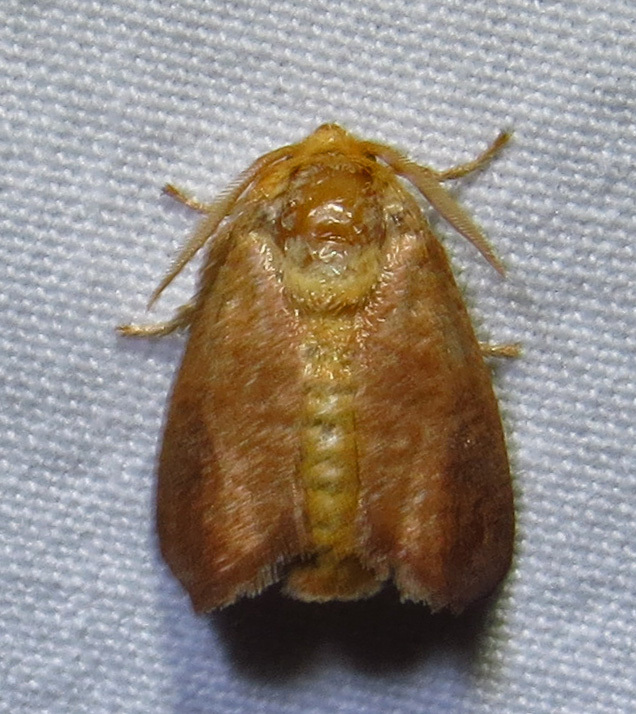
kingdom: Animalia
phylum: Arthropoda
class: Insecta
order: Lepidoptera
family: Limacodidae
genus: Isa
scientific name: Isa textula
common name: Crowned slug moth
